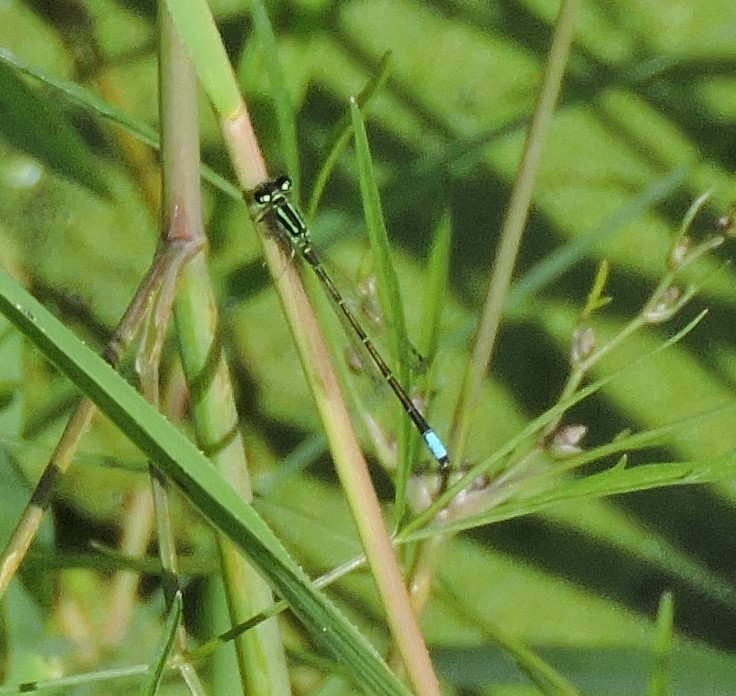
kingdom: Animalia
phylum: Arthropoda
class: Insecta
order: Odonata
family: Coenagrionidae
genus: Ischnura
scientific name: Ischnura verticalis
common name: Eastern forktail
